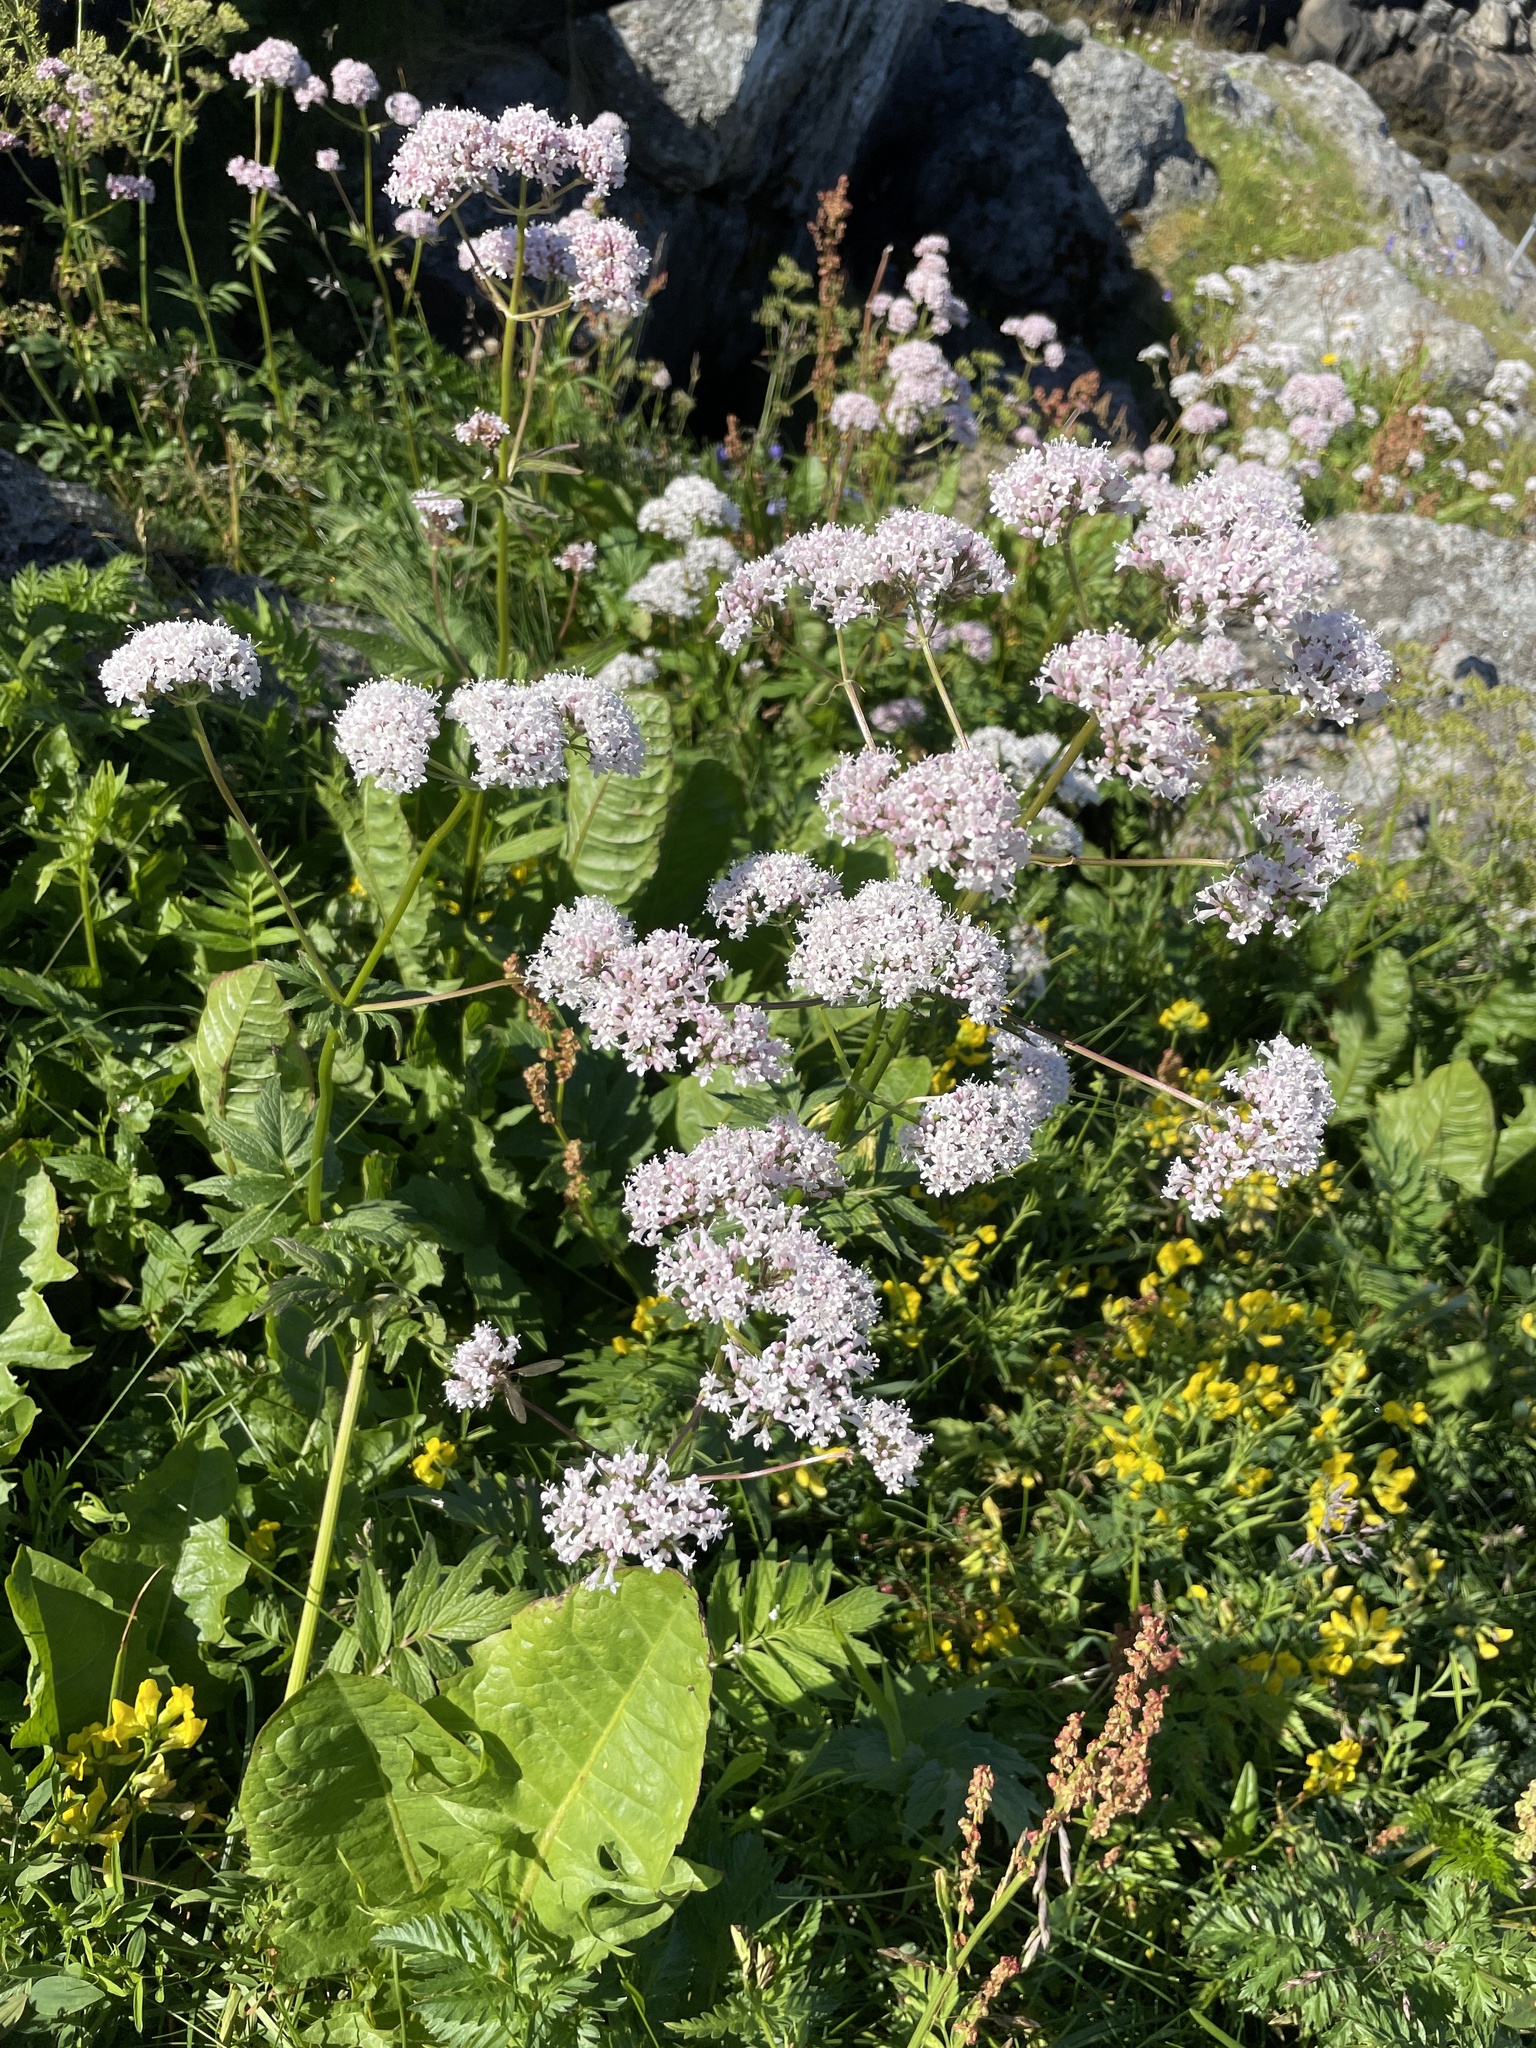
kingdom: Plantae
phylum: Tracheophyta
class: Magnoliopsida
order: Dipsacales
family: Caprifoliaceae
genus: Valeriana
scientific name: Valeriana sambucifolia
